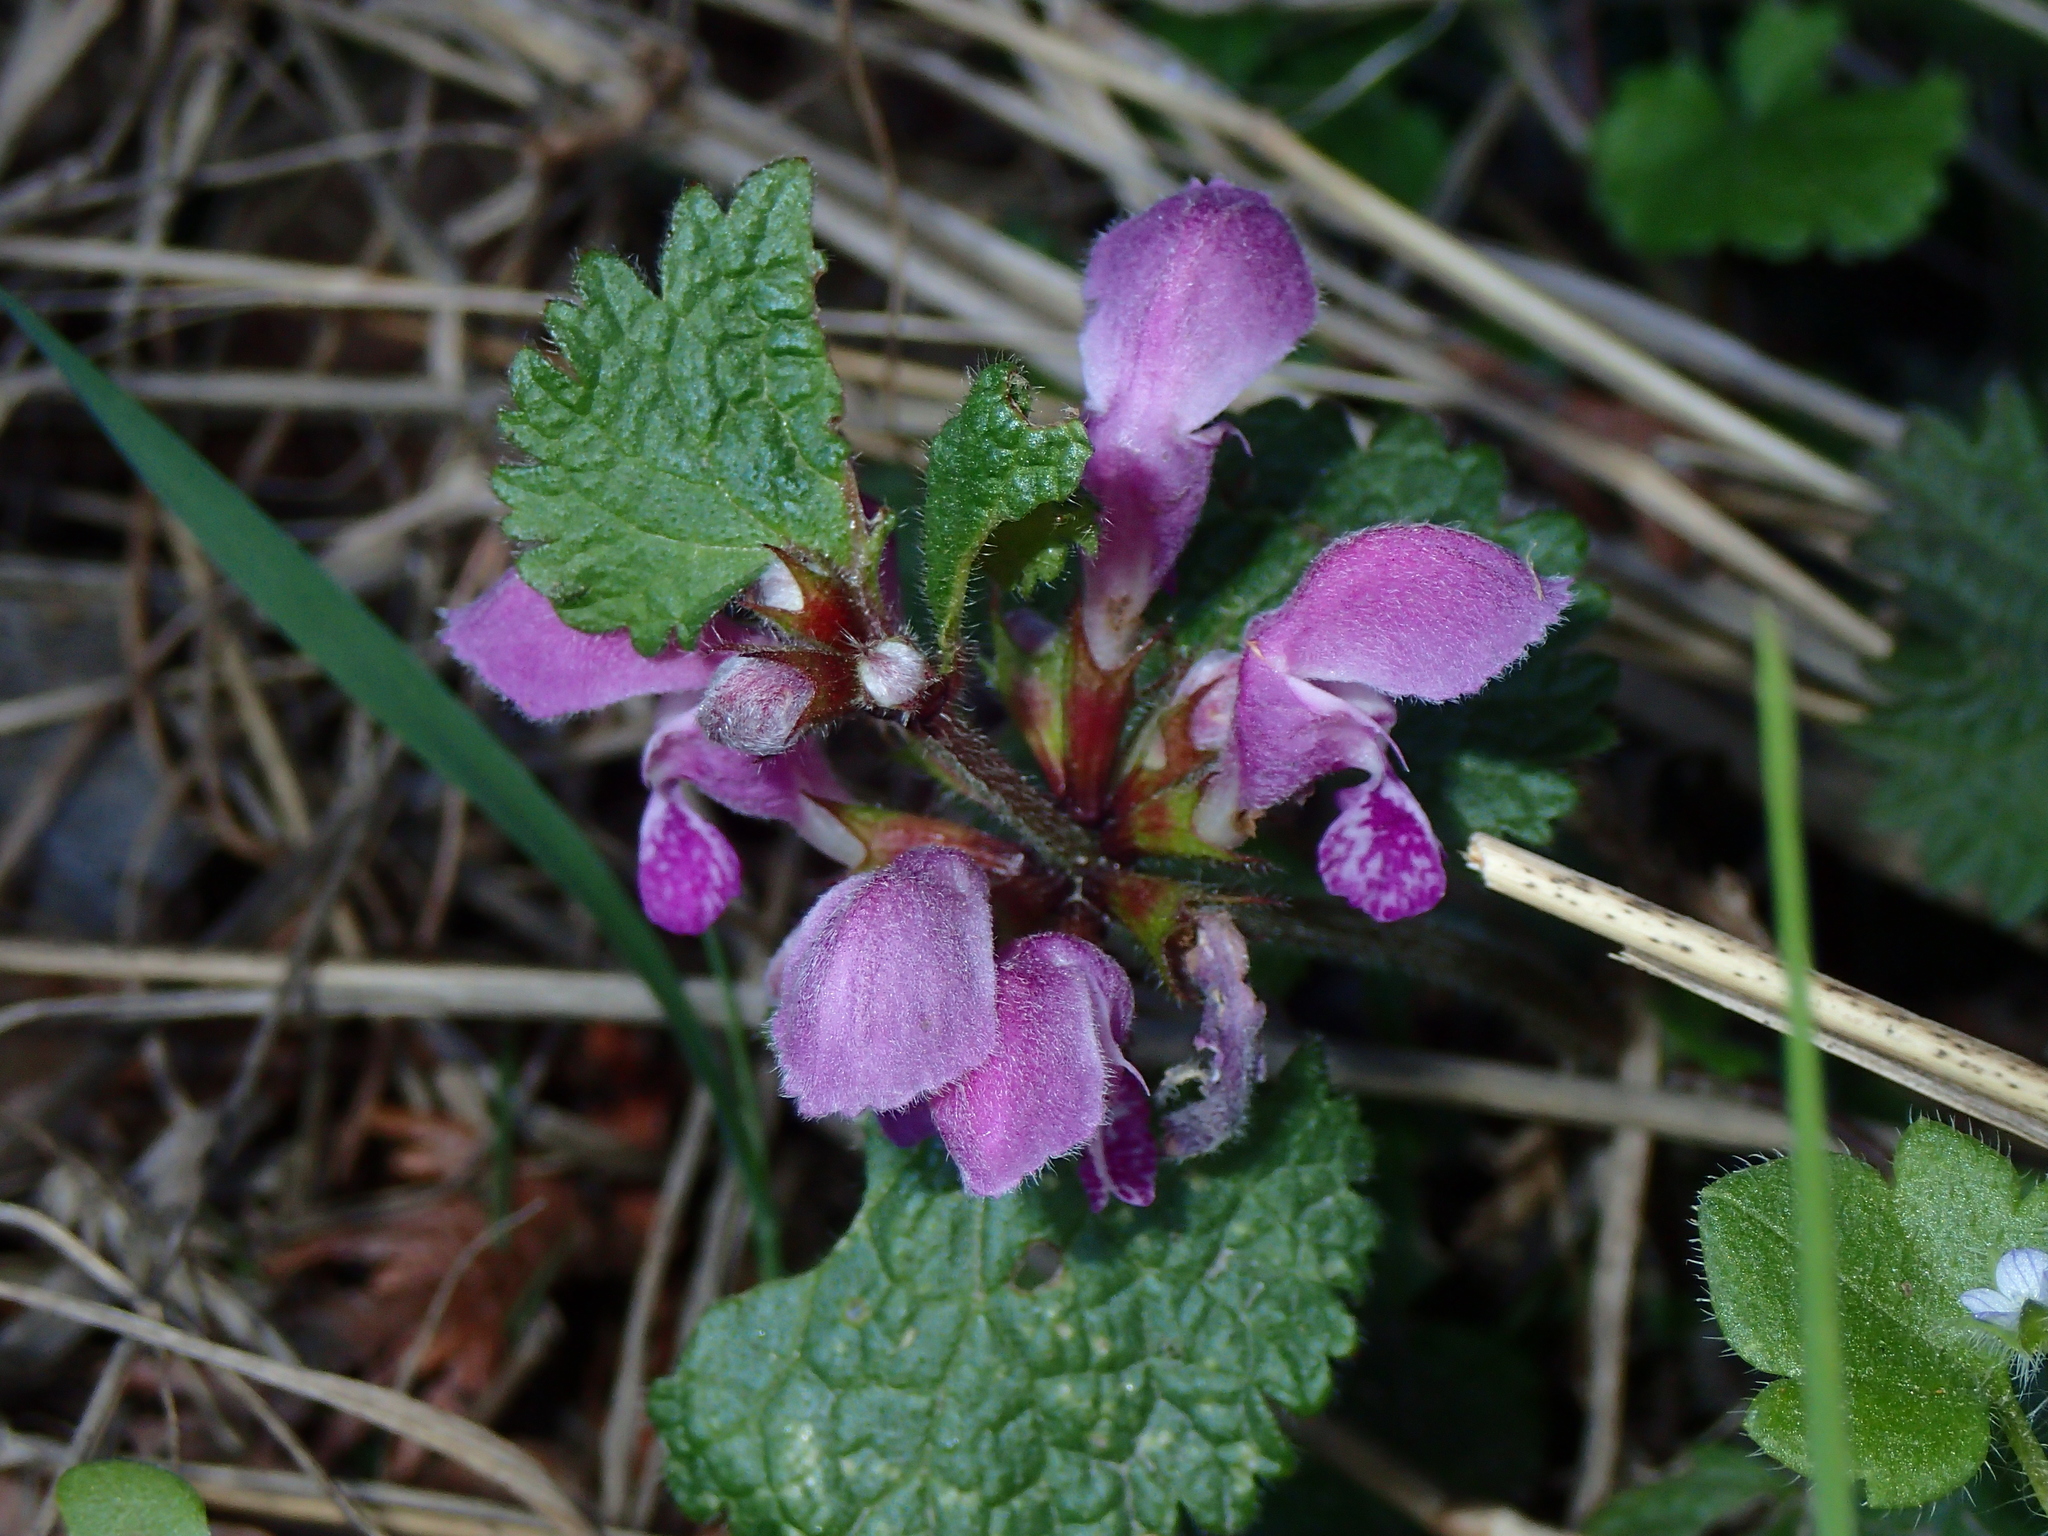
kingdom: Plantae
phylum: Tracheophyta
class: Magnoliopsida
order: Lamiales
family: Lamiaceae
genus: Lamium
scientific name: Lamium maculatum
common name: Spotted dead-nettle
